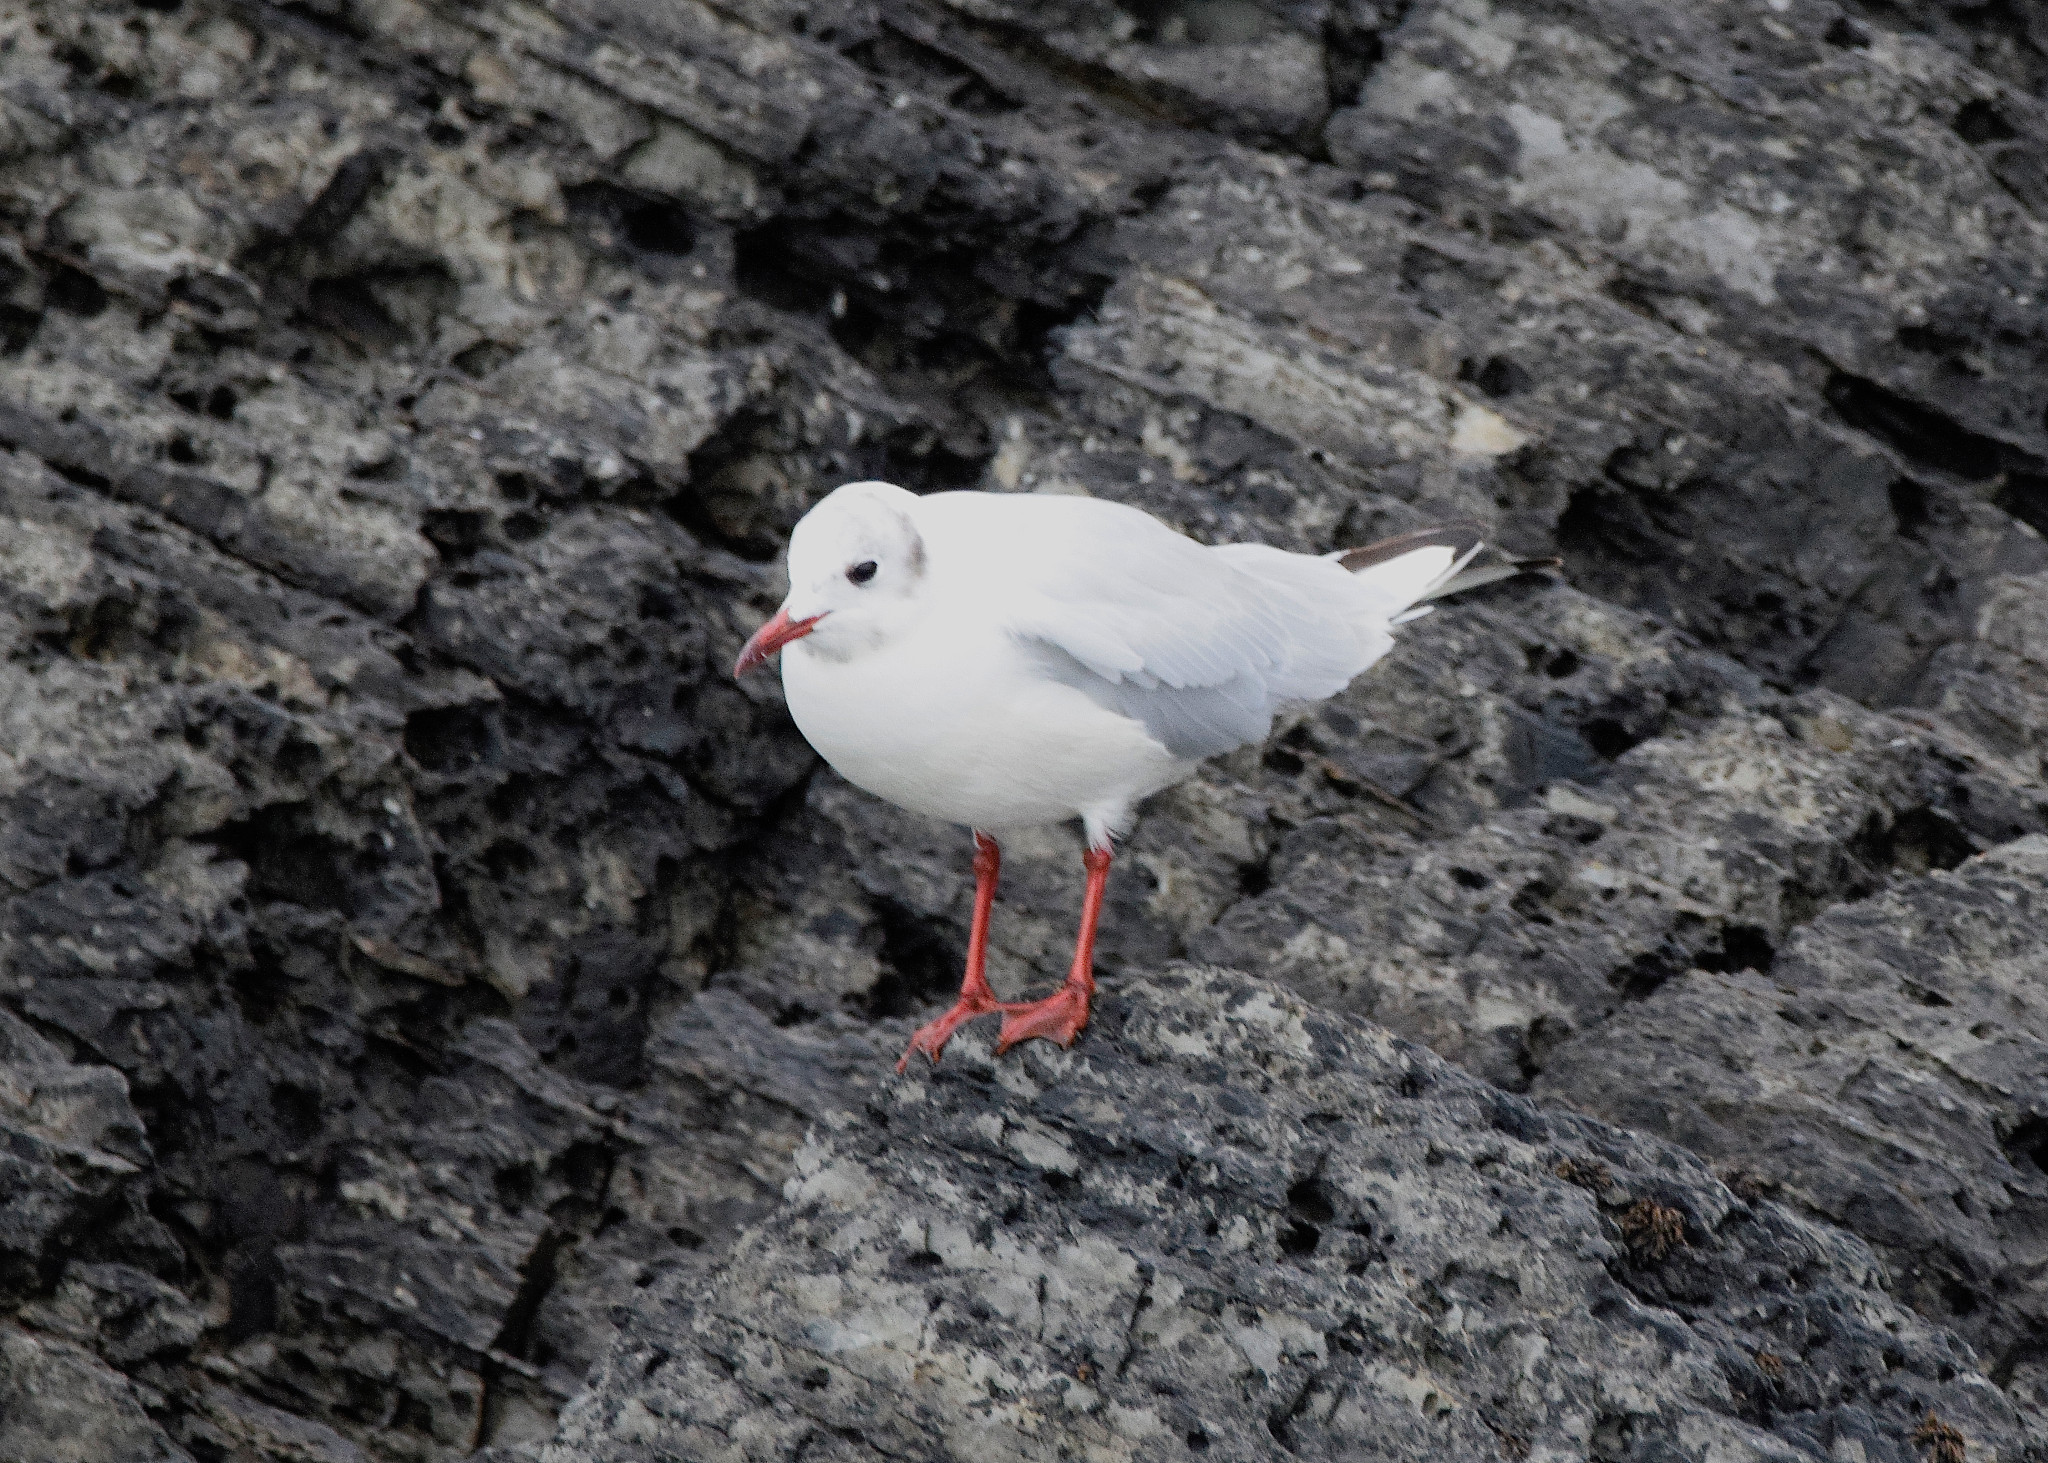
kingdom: Animalia
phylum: Chordata
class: Aves
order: Charadriiformes
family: Laridae
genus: Chroicocephalus
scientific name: Chroicocephalus ridibundus
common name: Black-headed gull
